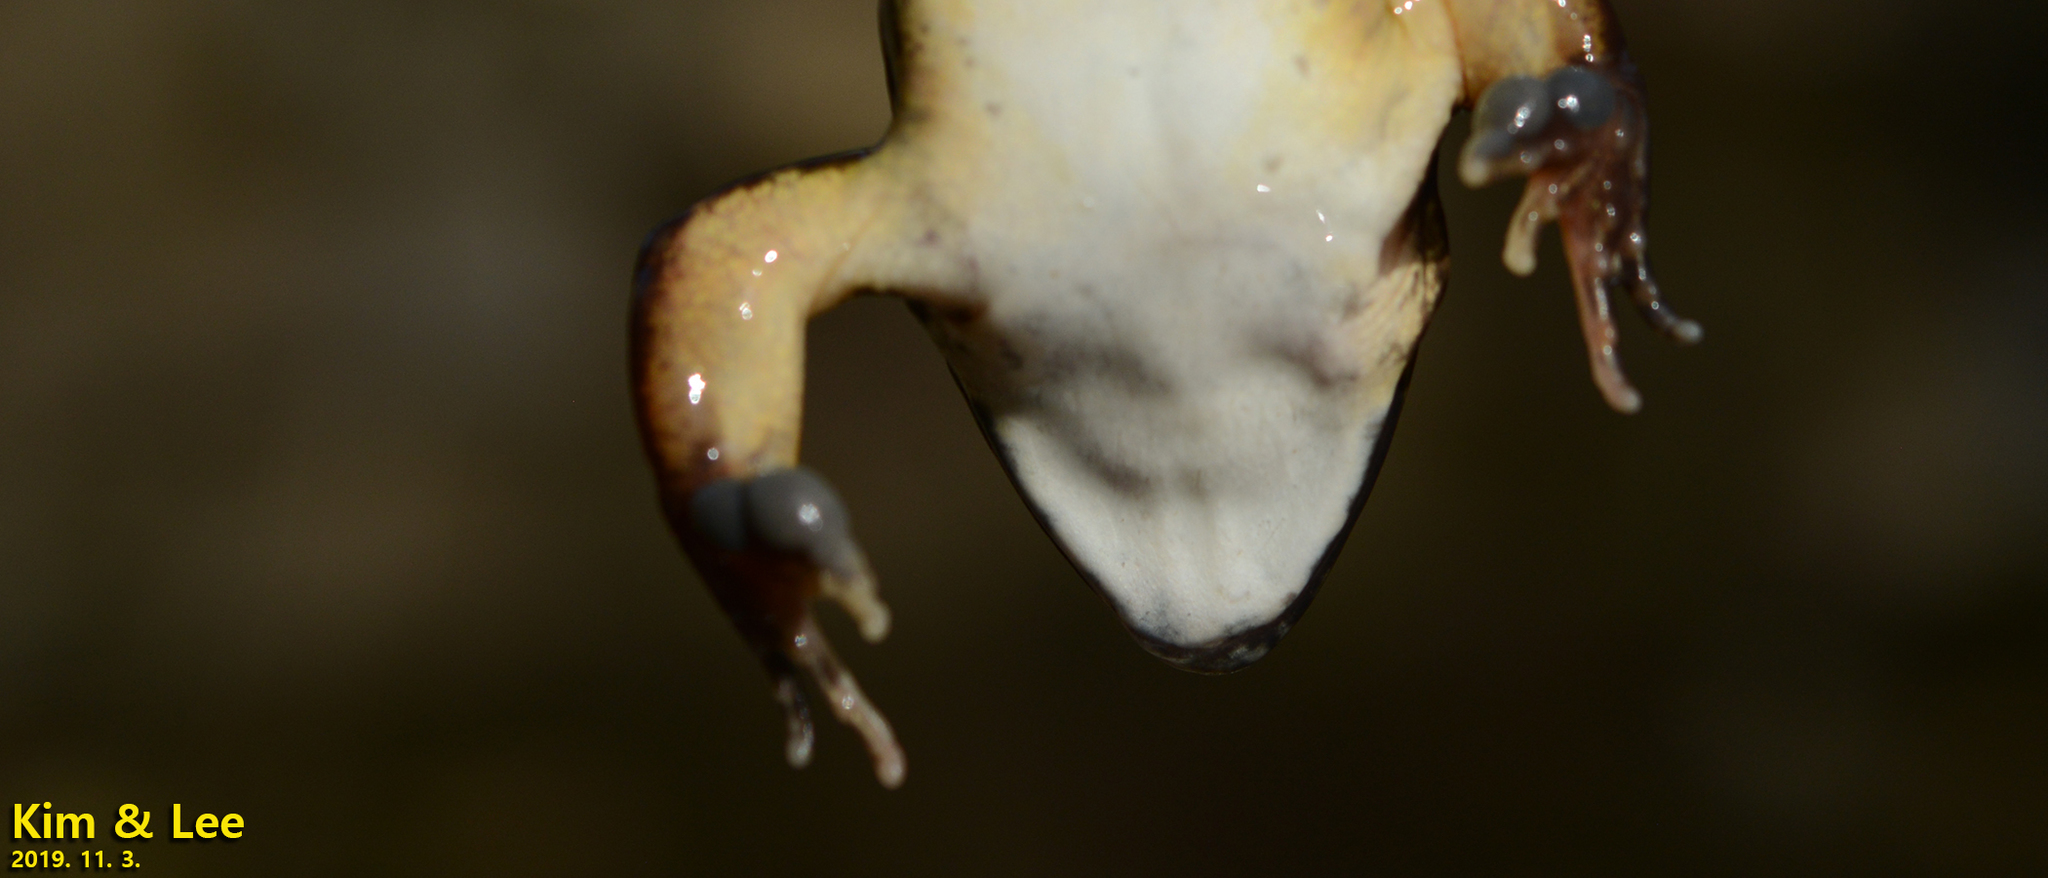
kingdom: Animalia
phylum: Chordata
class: Amphibia
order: Anura
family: Ranidae
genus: Rana
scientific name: Rana uenoi
